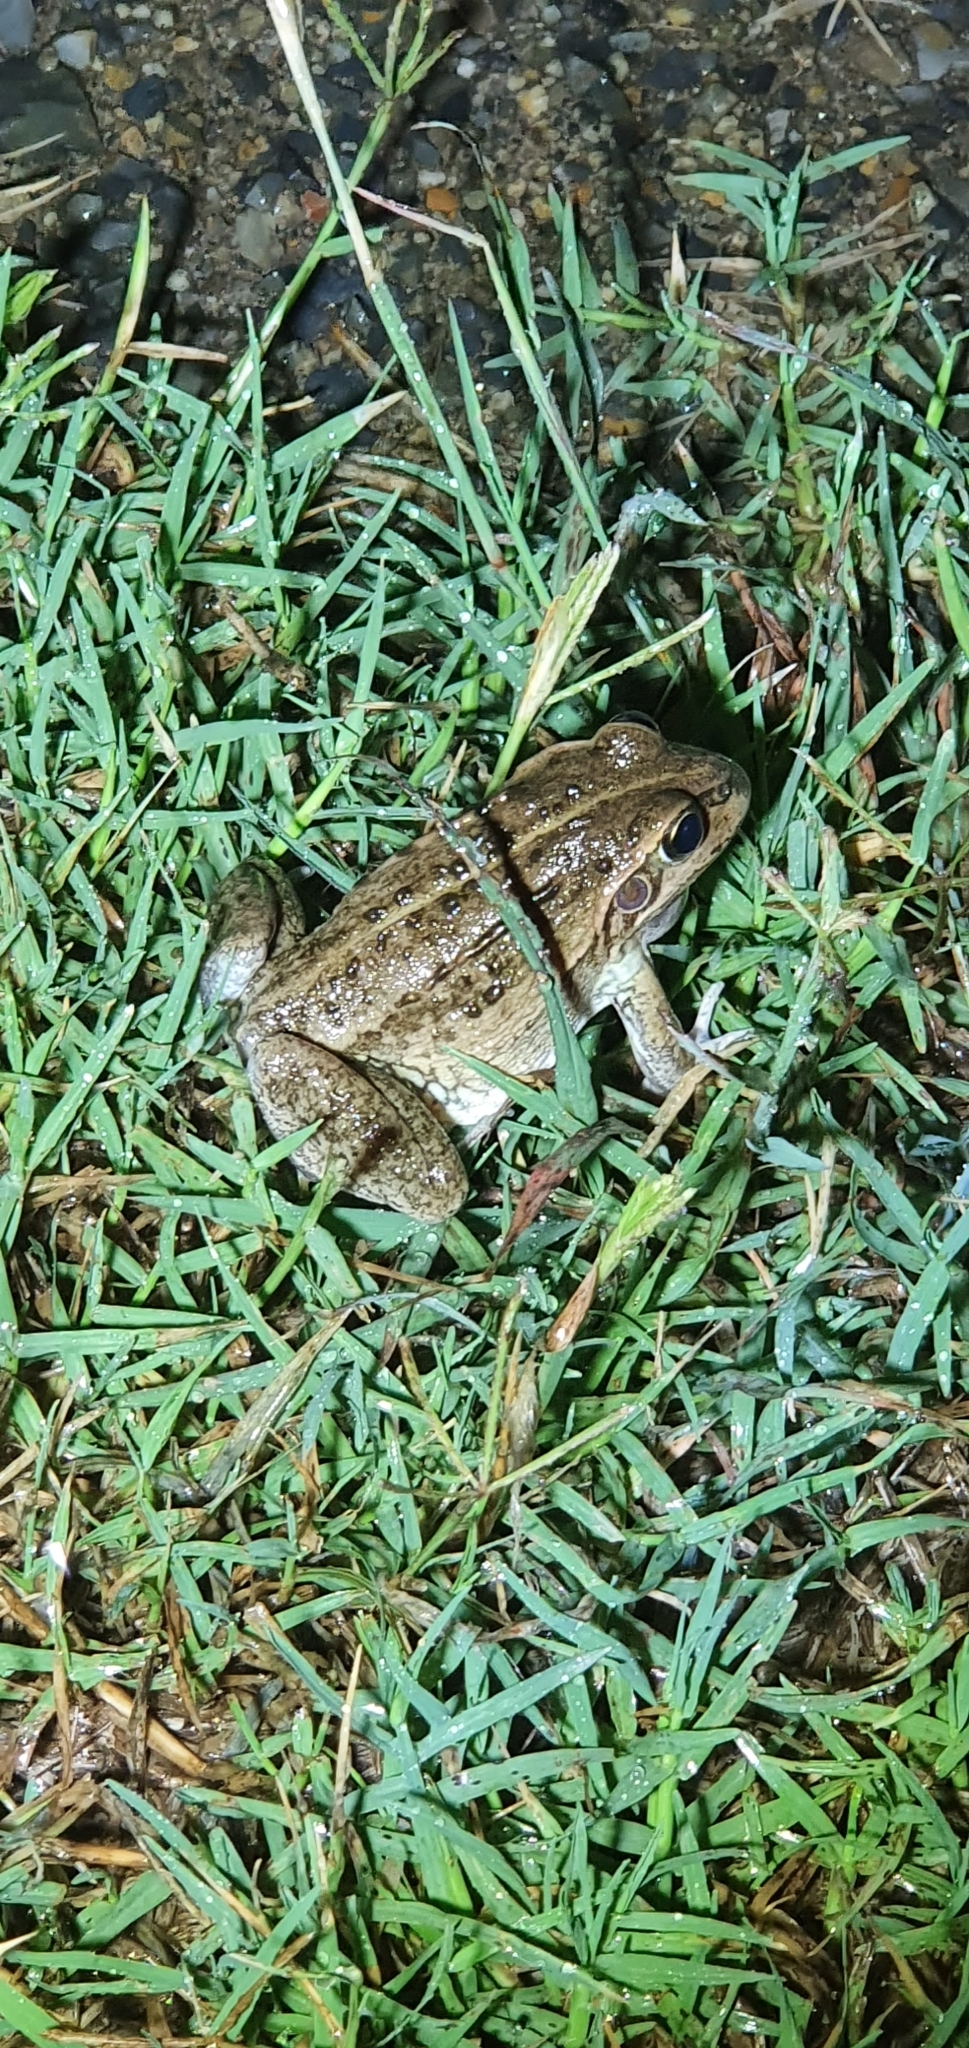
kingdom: Animalia
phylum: Chordata
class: Amphibia
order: Anura
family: Pelodryadidae
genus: Ranoidea
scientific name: Ranoidea alboguttata
